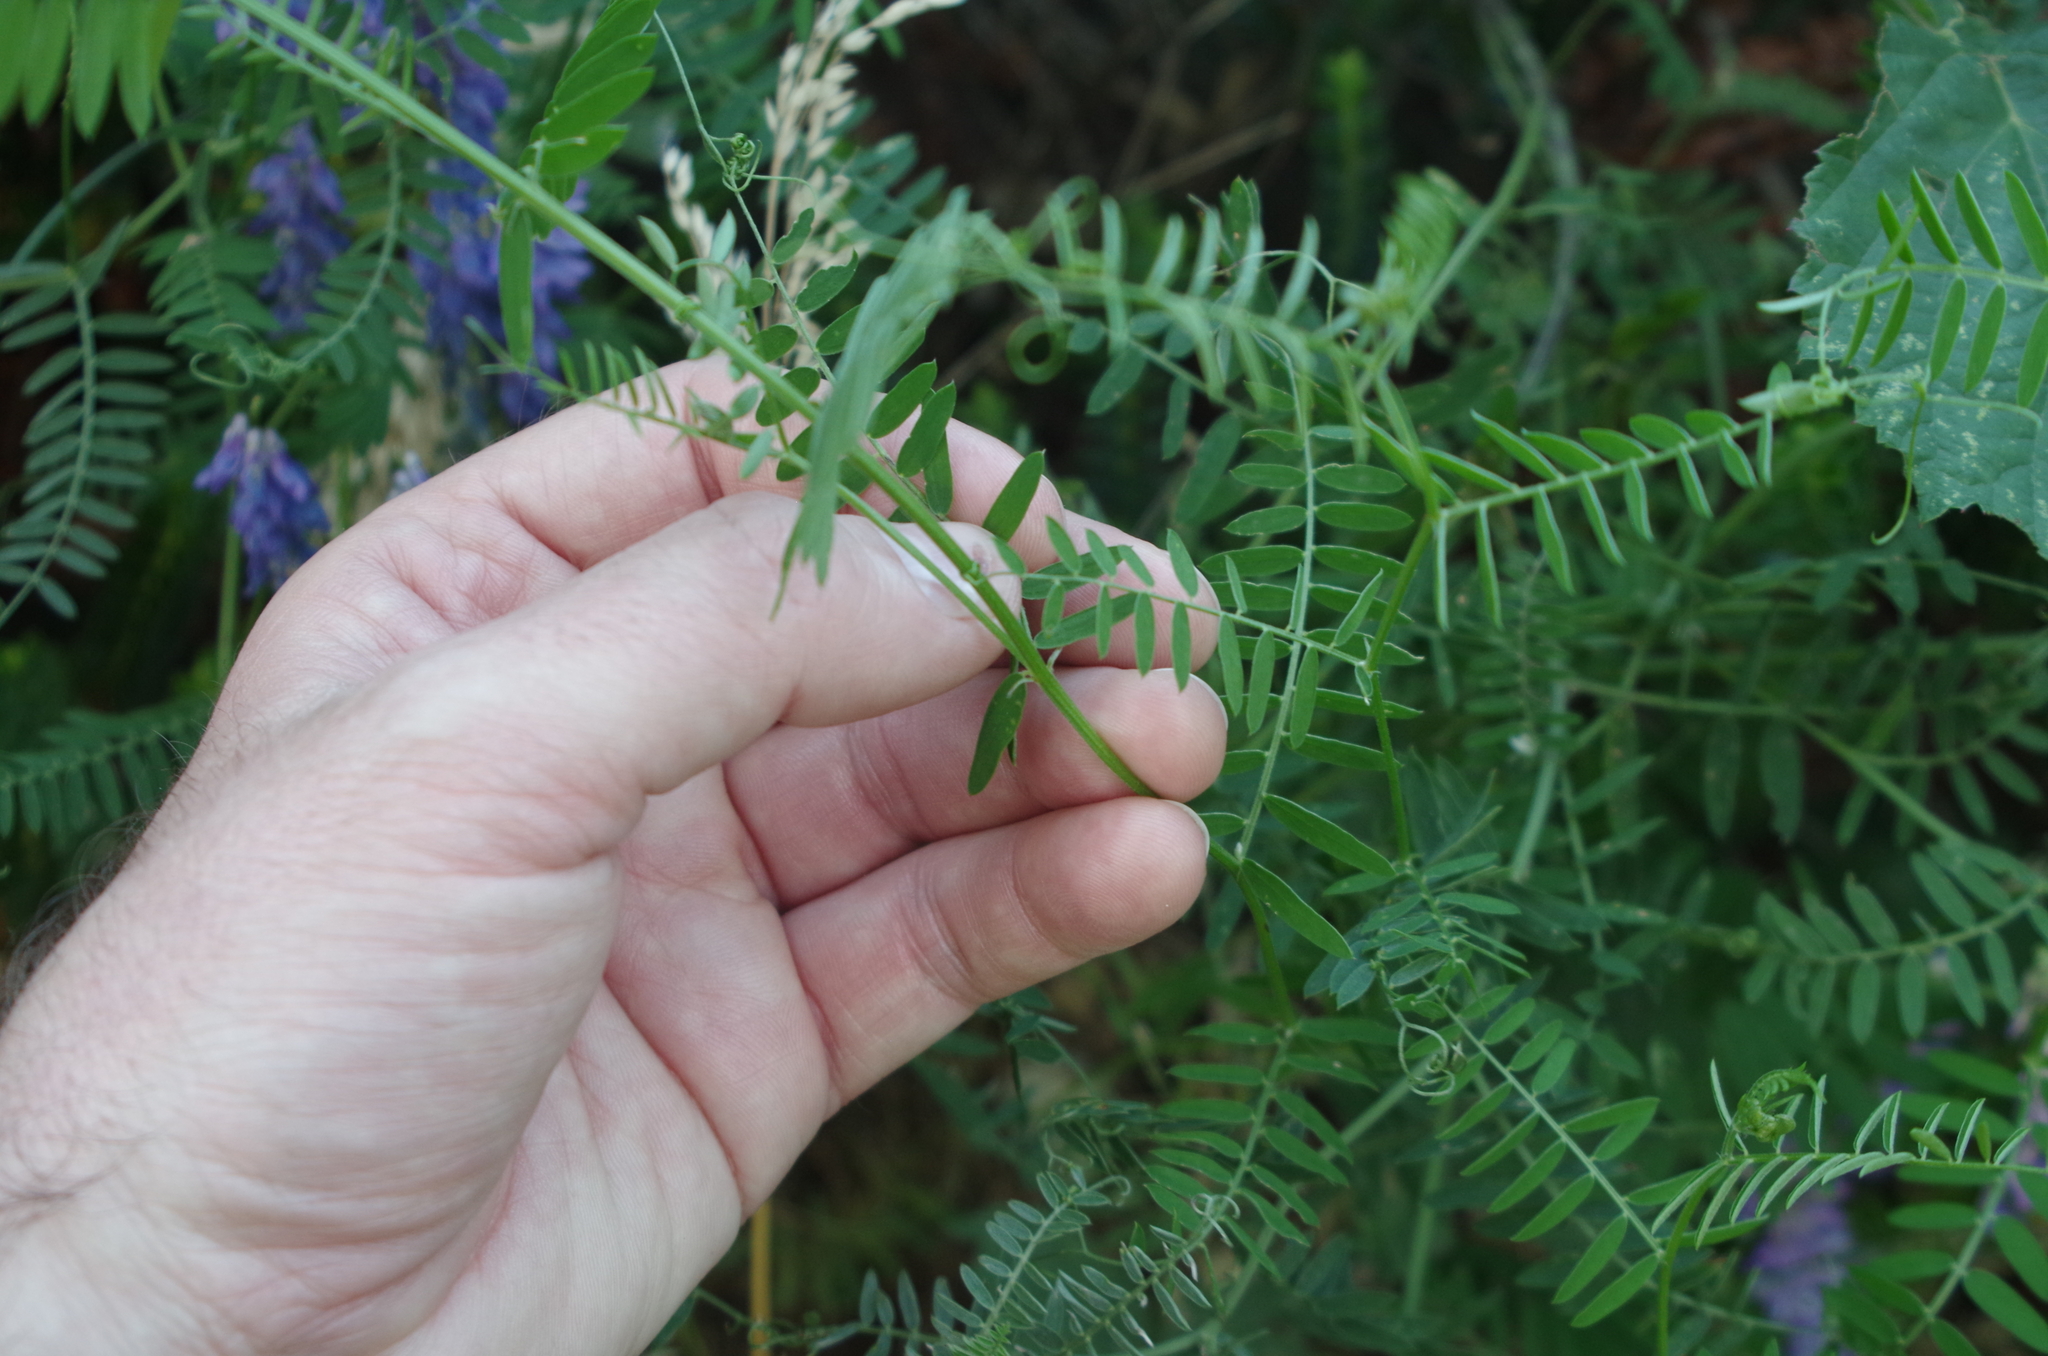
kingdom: Plantae
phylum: Tracheophyta
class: Magnoliopsida
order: Fabales
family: Fabaceae
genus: Vicia
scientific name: Vicia cracca
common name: Bird vetch
